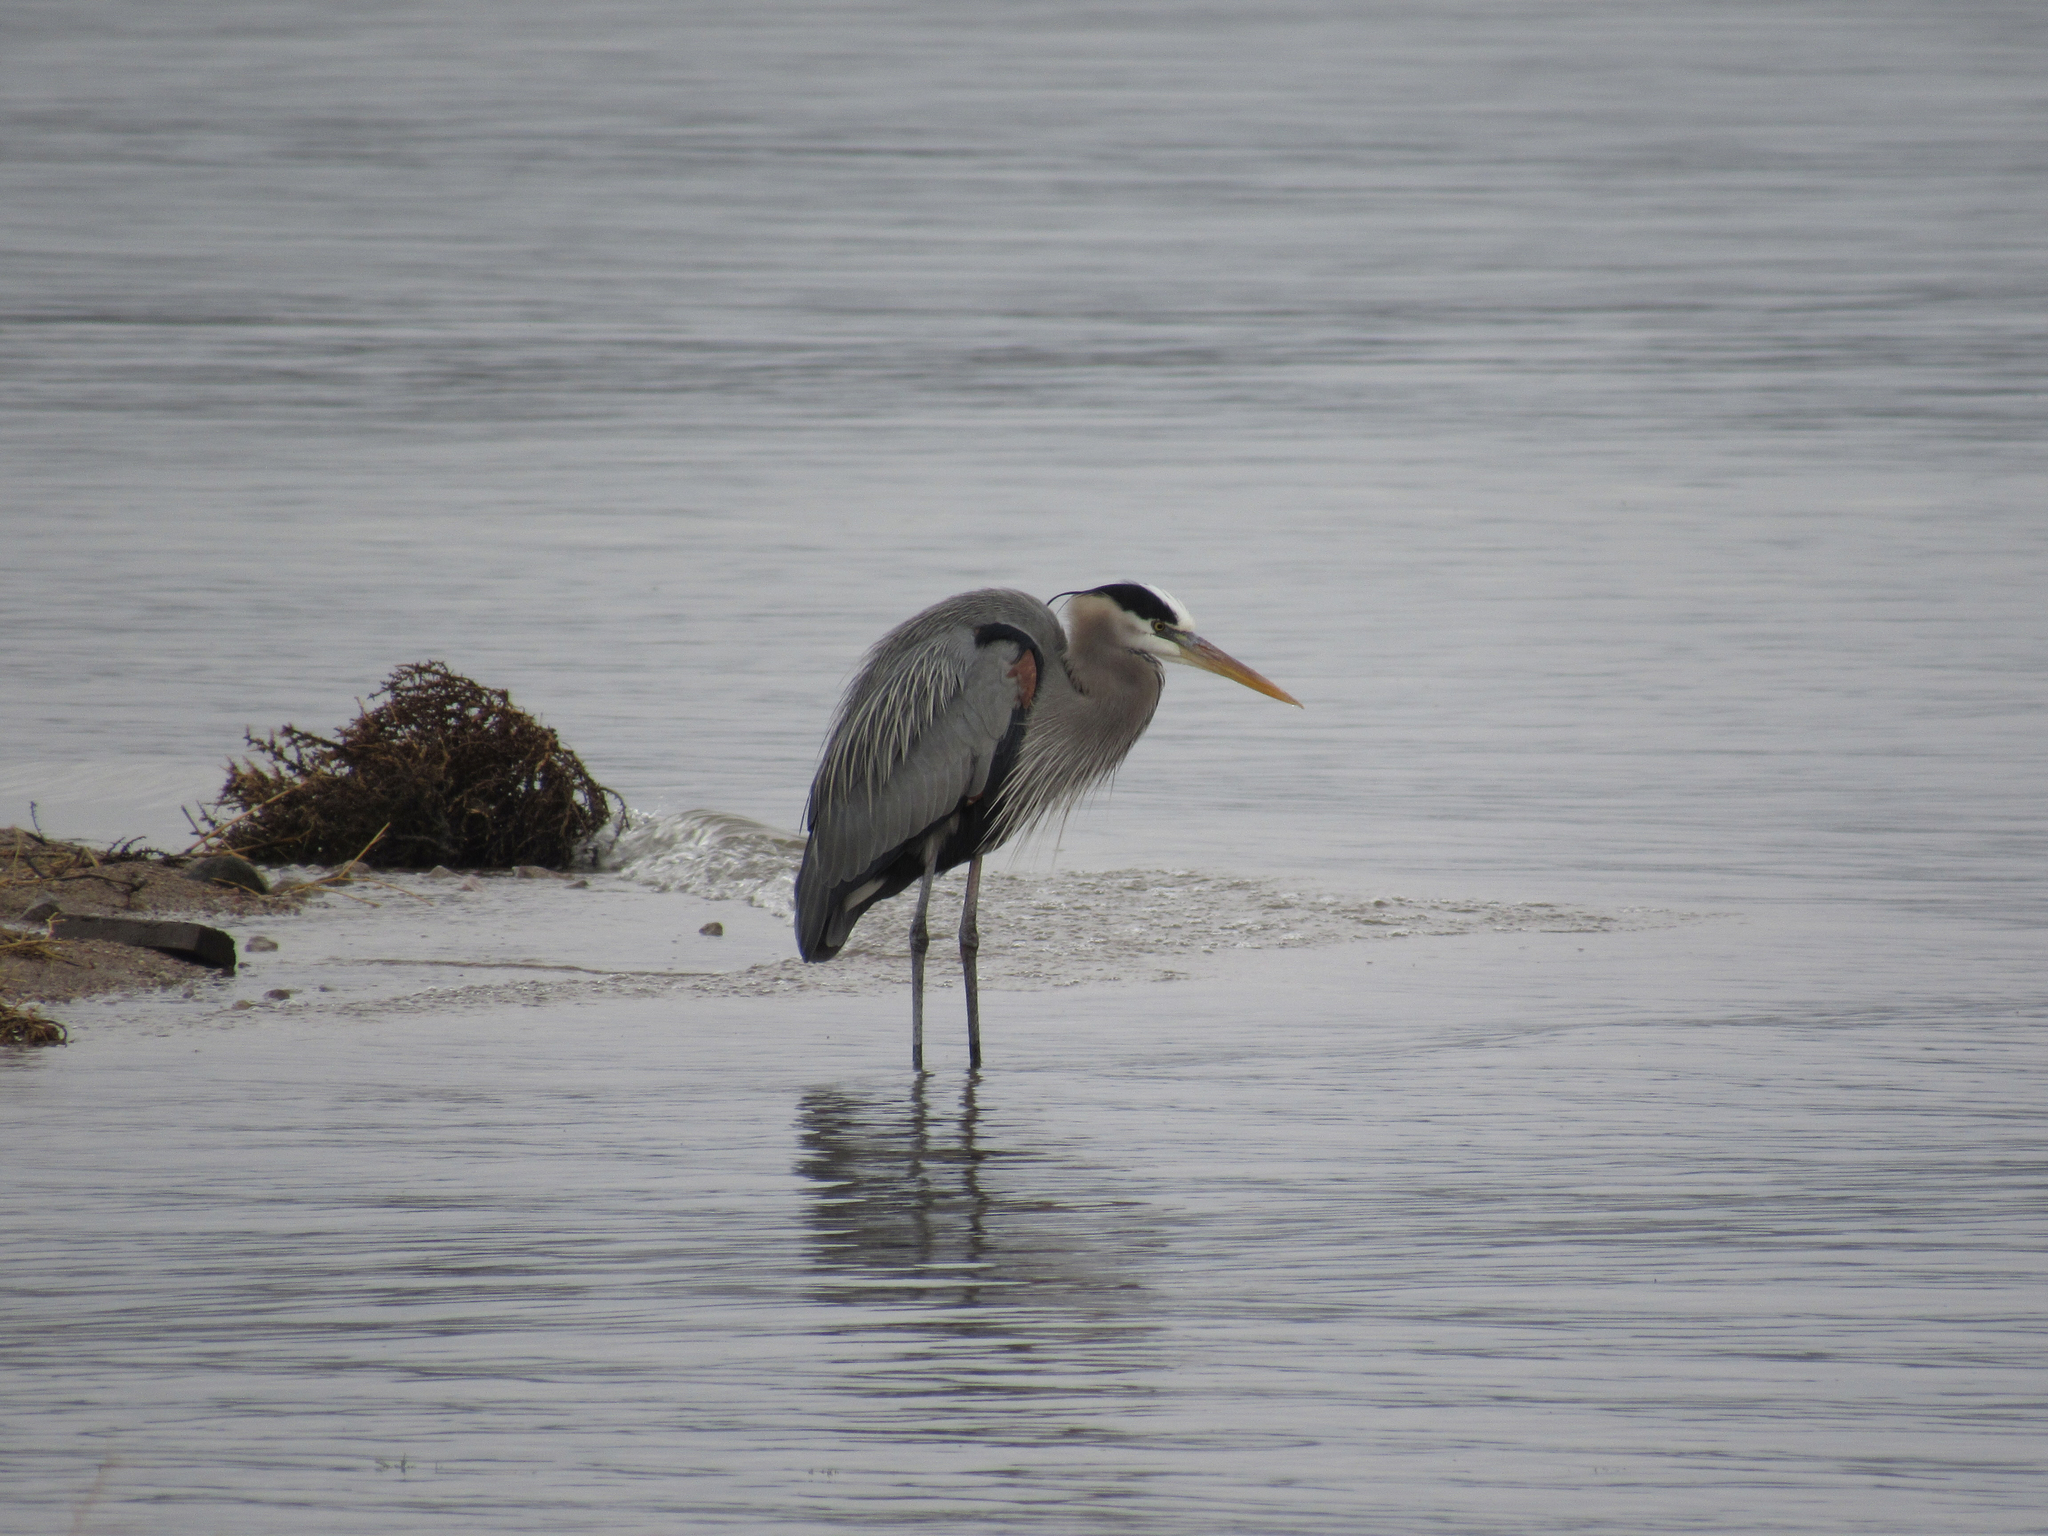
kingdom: Animalia
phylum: Chordata
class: Aves
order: Pelecaniformes
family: Ardeidae
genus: Ardea
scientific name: Ardea herodias
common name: Great blue heron
